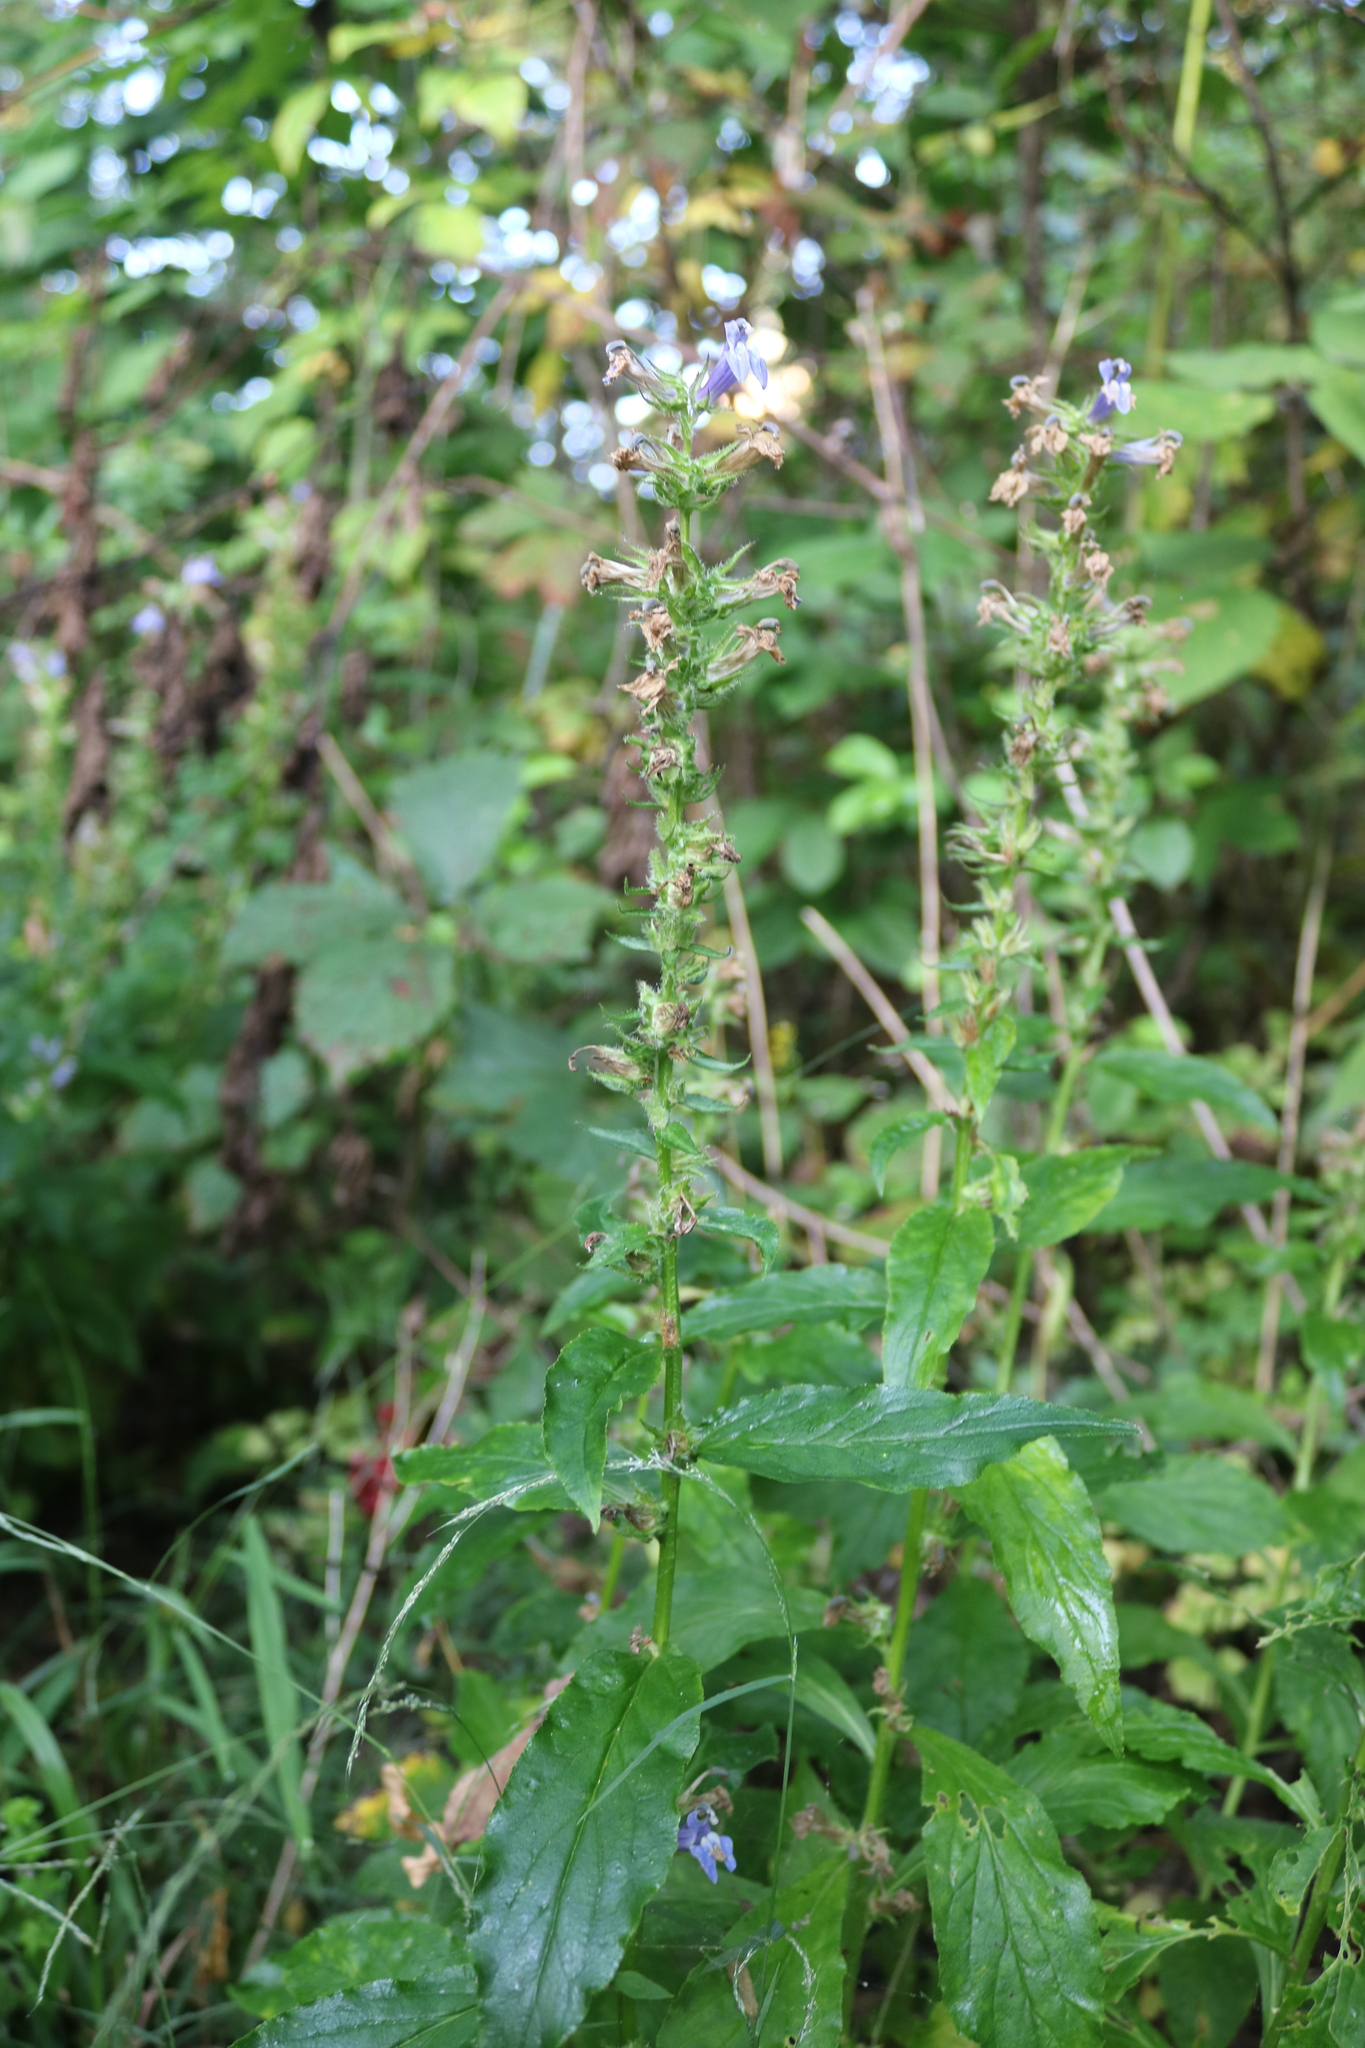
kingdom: Plantae
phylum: Tracheophyta
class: Magnoliopsida
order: Asterales
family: Campanulaceae
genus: Lobelia
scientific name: Lobelia siphilitica
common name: Great lobelia
